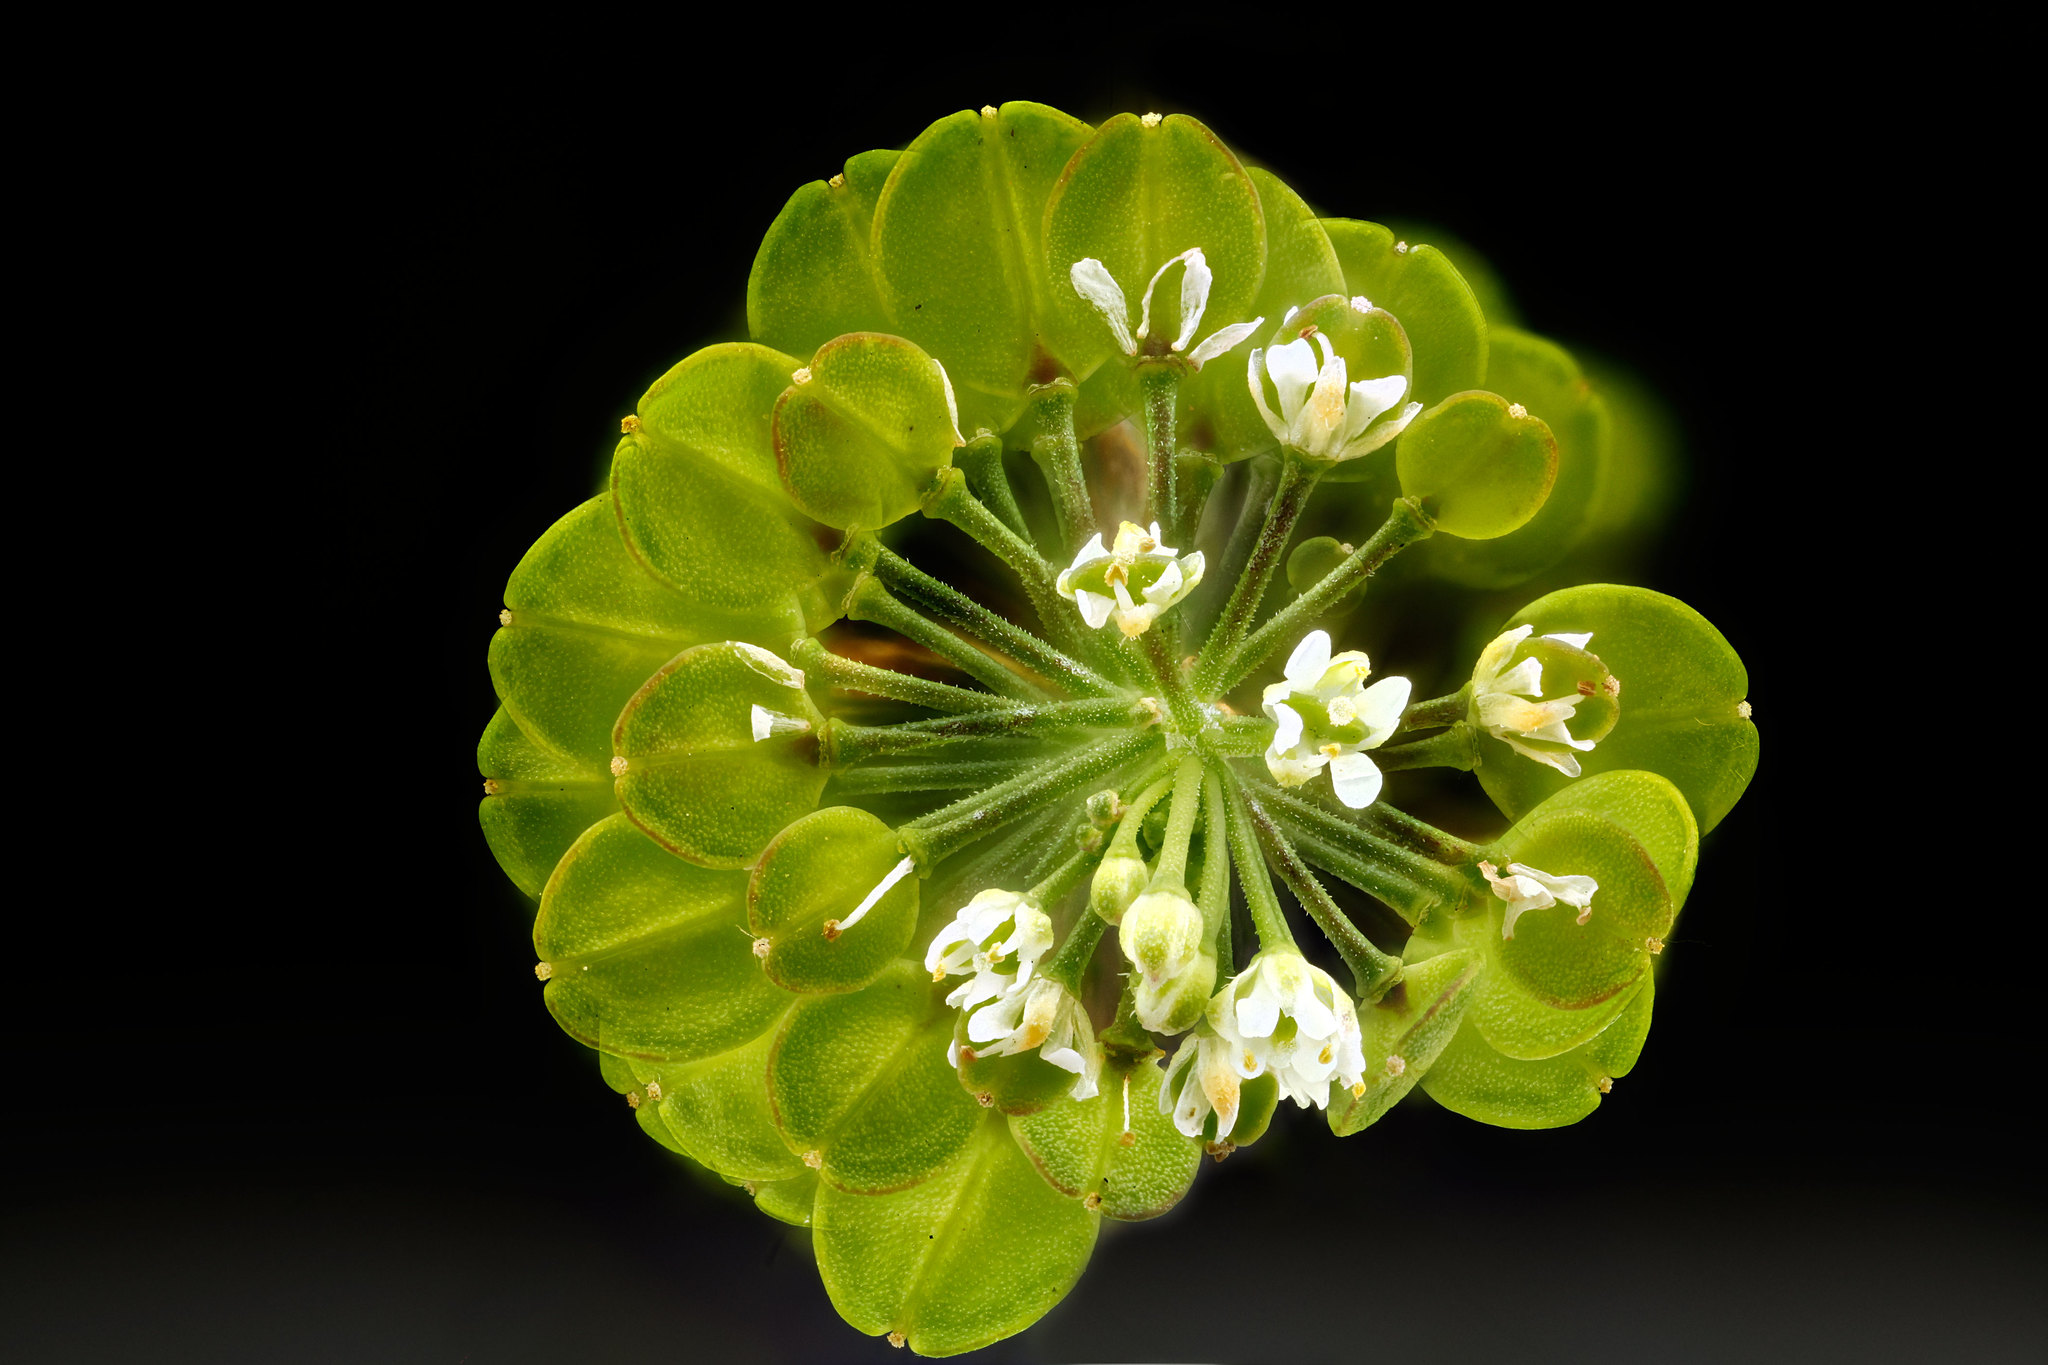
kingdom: Plantae
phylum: Tracheophyta
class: Magnoliopsida
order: Brassicales
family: Brassicaceae
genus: Lepidium
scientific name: Lepidium virginicum
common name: Least pepperwort
